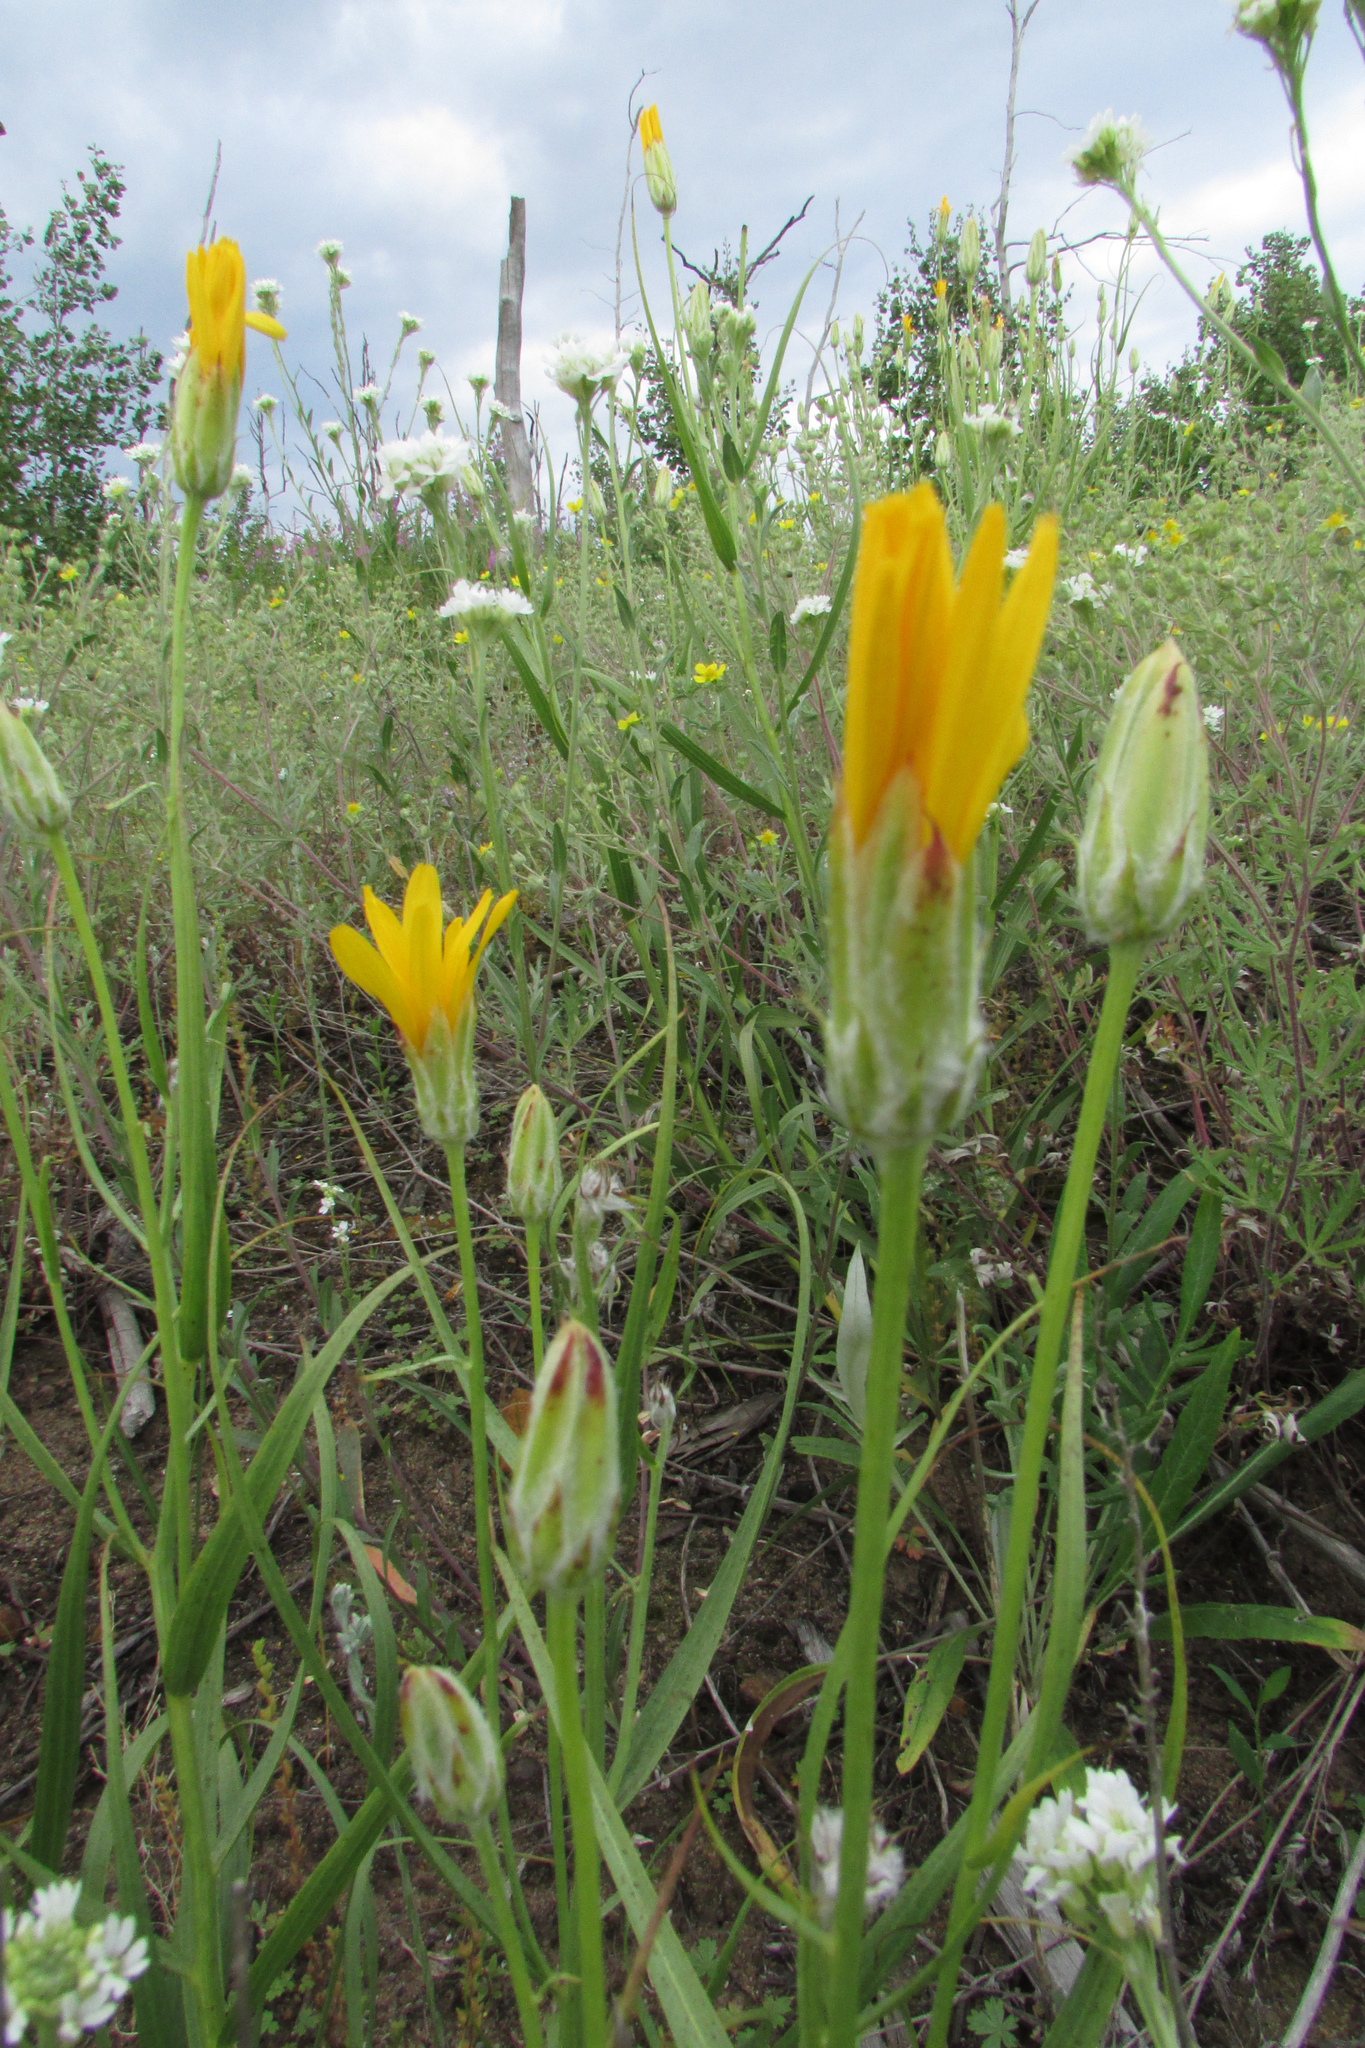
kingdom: Plantae
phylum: Tracheophyta
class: Magnoliopsida
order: Asterales
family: Asteraceae
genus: Gelasia
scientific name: Gelasia ensifolia
